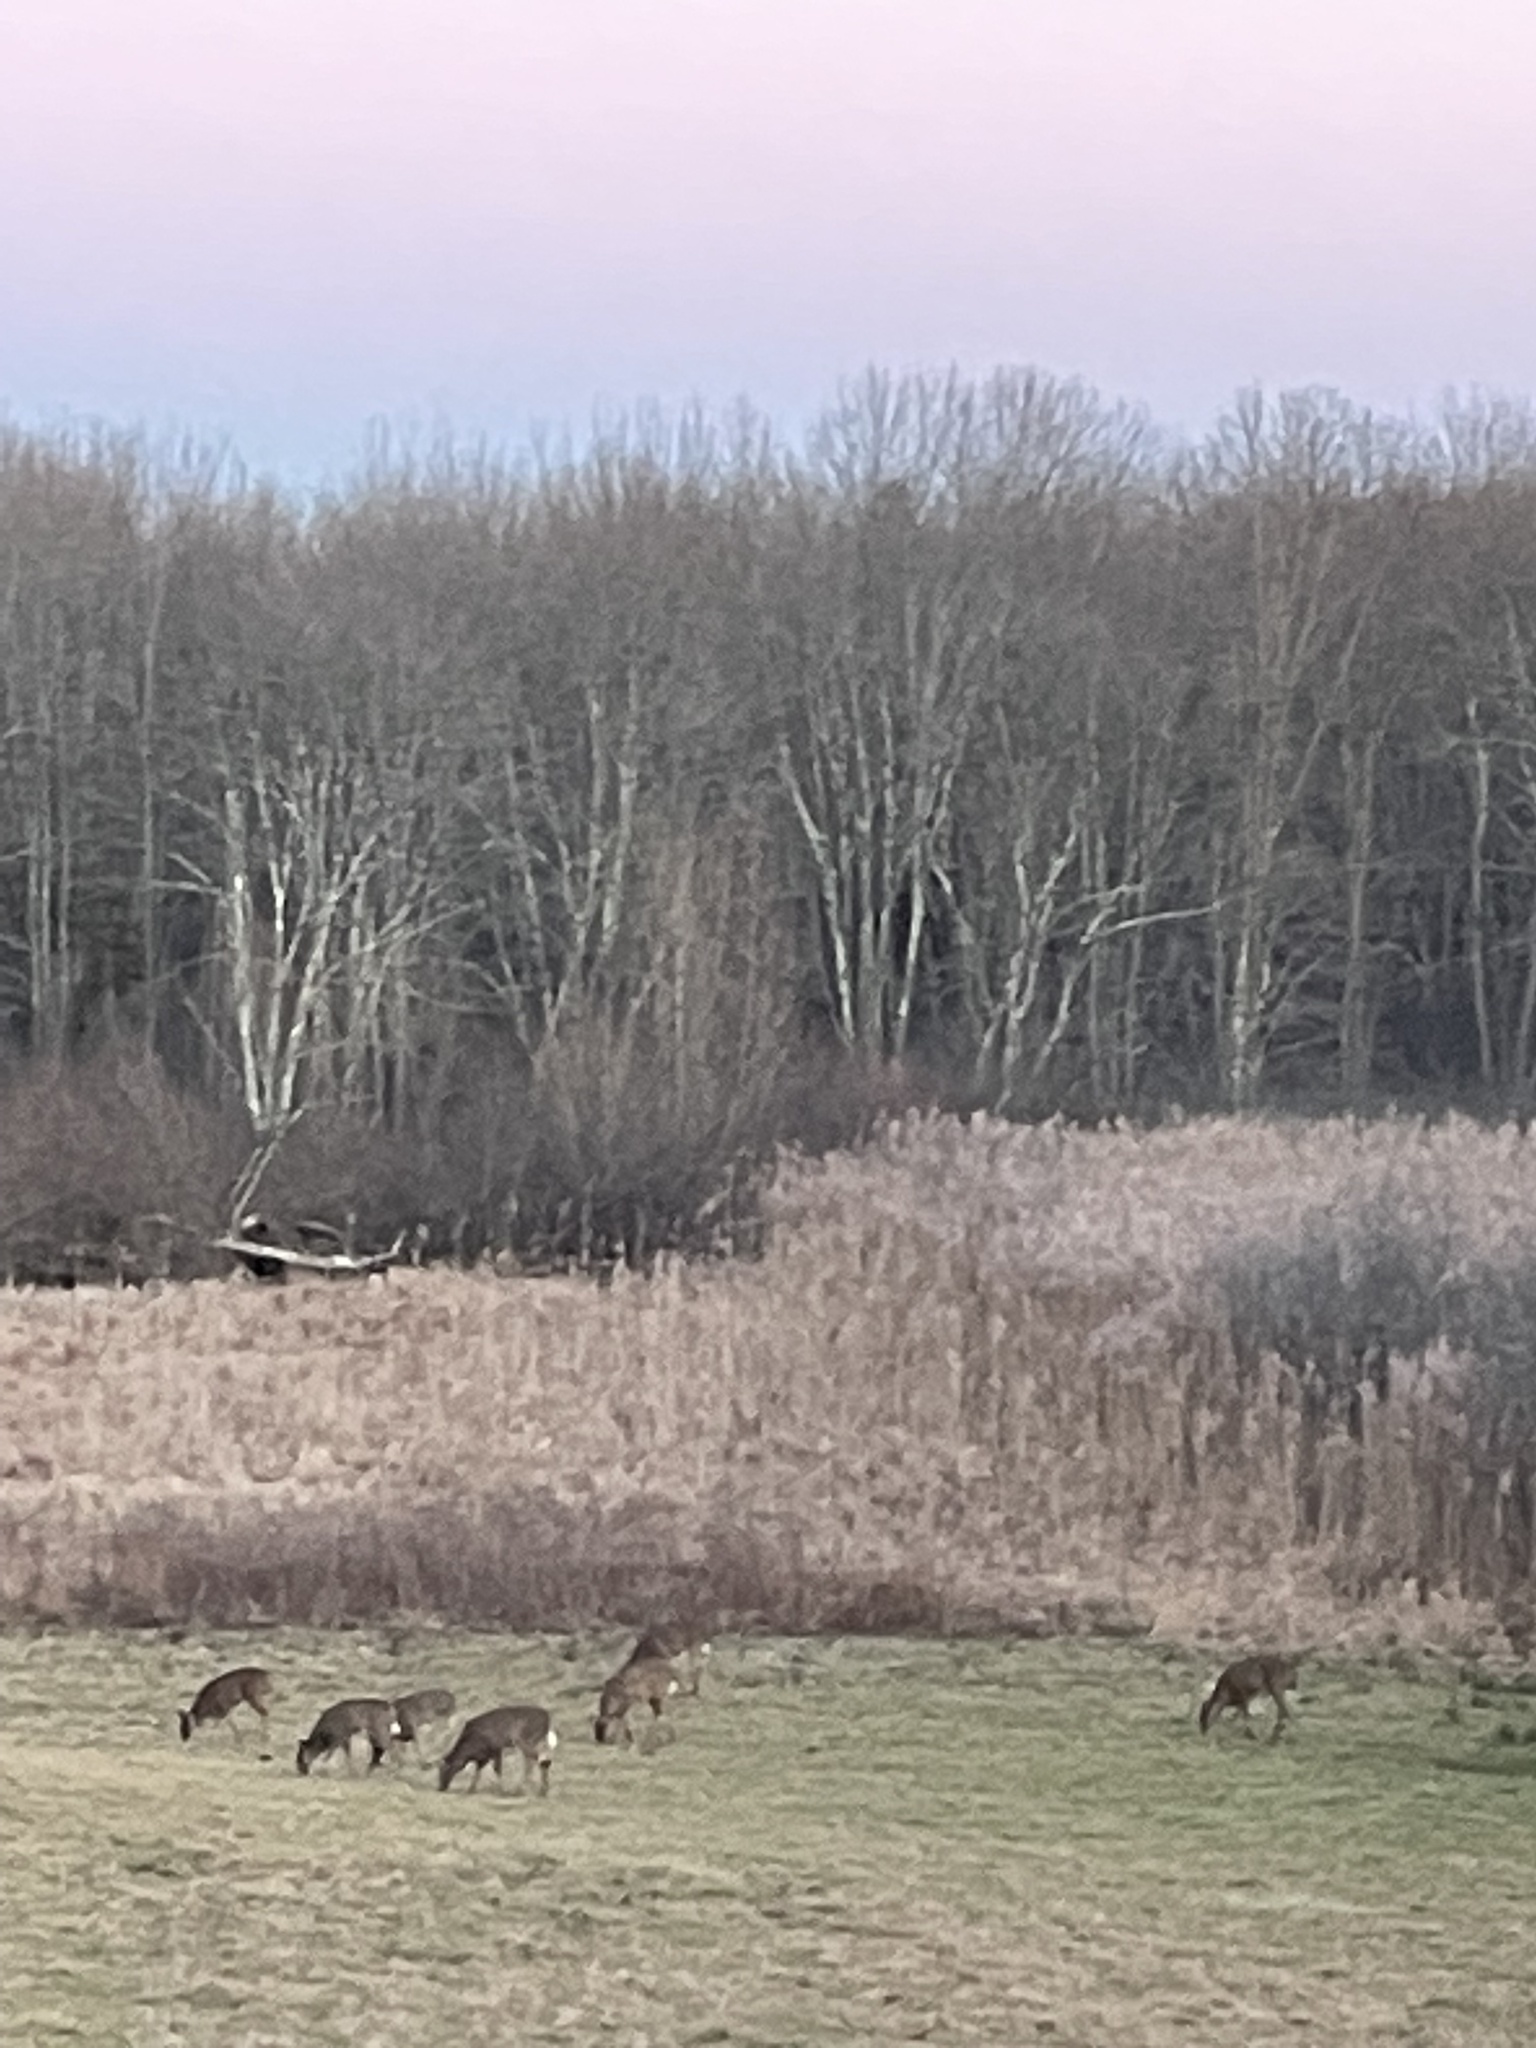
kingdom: Animalia
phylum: Chordata
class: Mammalia
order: Artiodactyla
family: Cervidae
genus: Odocoileus
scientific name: Odocoileus virginianus
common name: White-tailed deer
